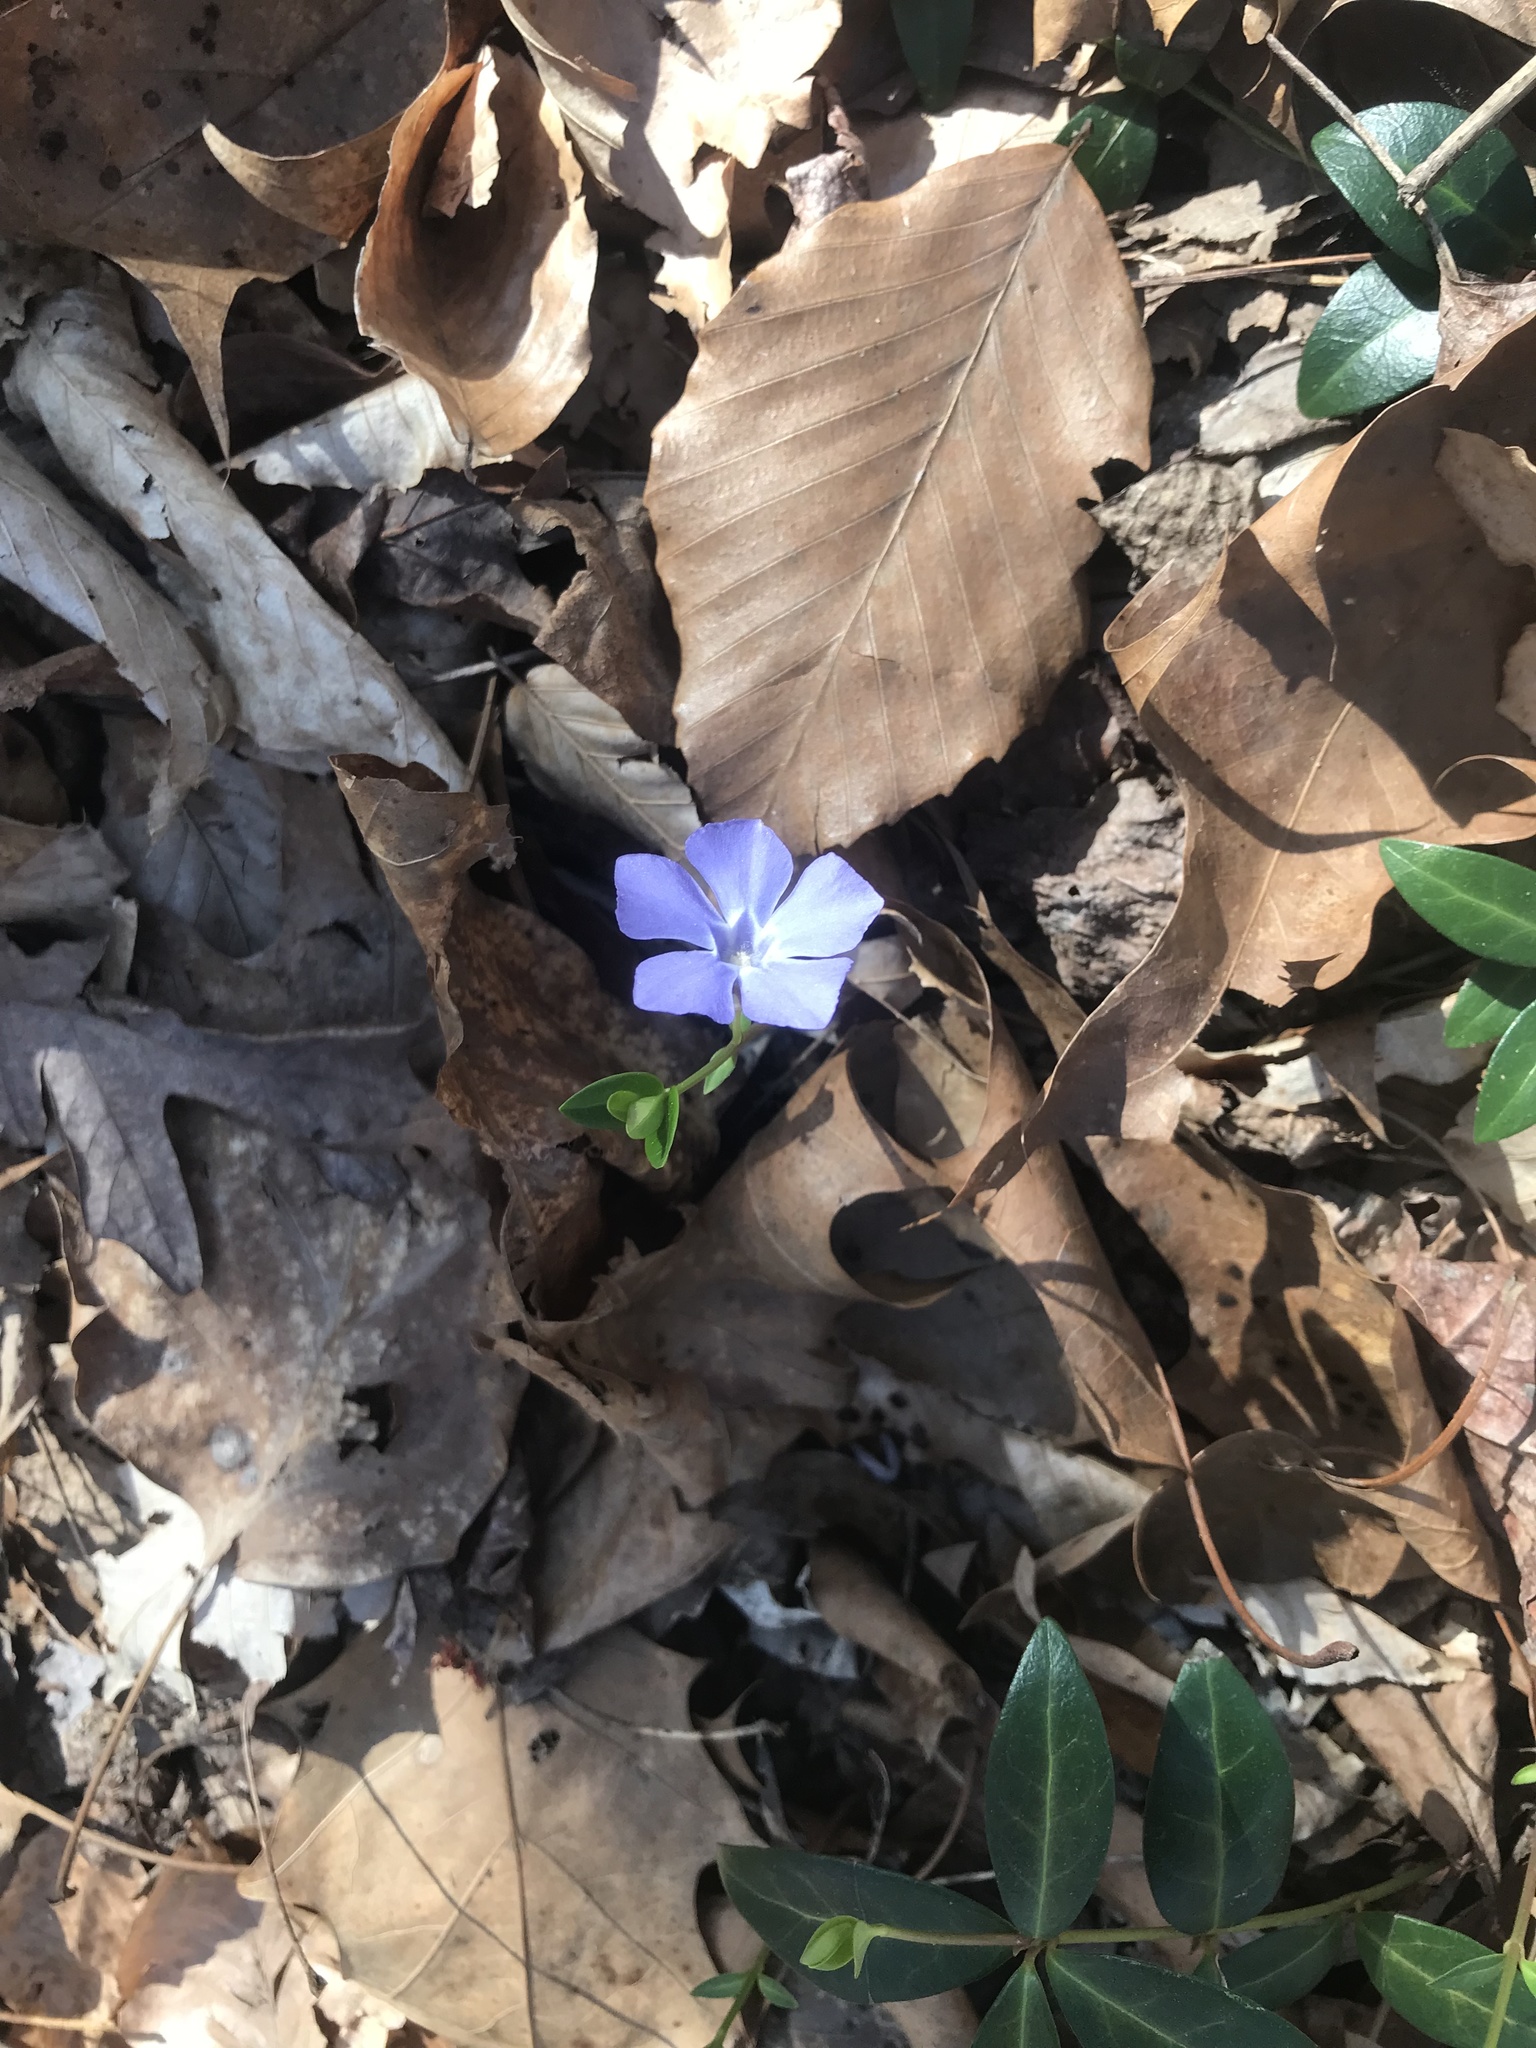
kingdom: Plantae
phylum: Tracheophyta
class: Magnoliopsida
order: Gentianales
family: Apocynaceae
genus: Vinca
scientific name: Vinca minor
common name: Lesser periwinkle
